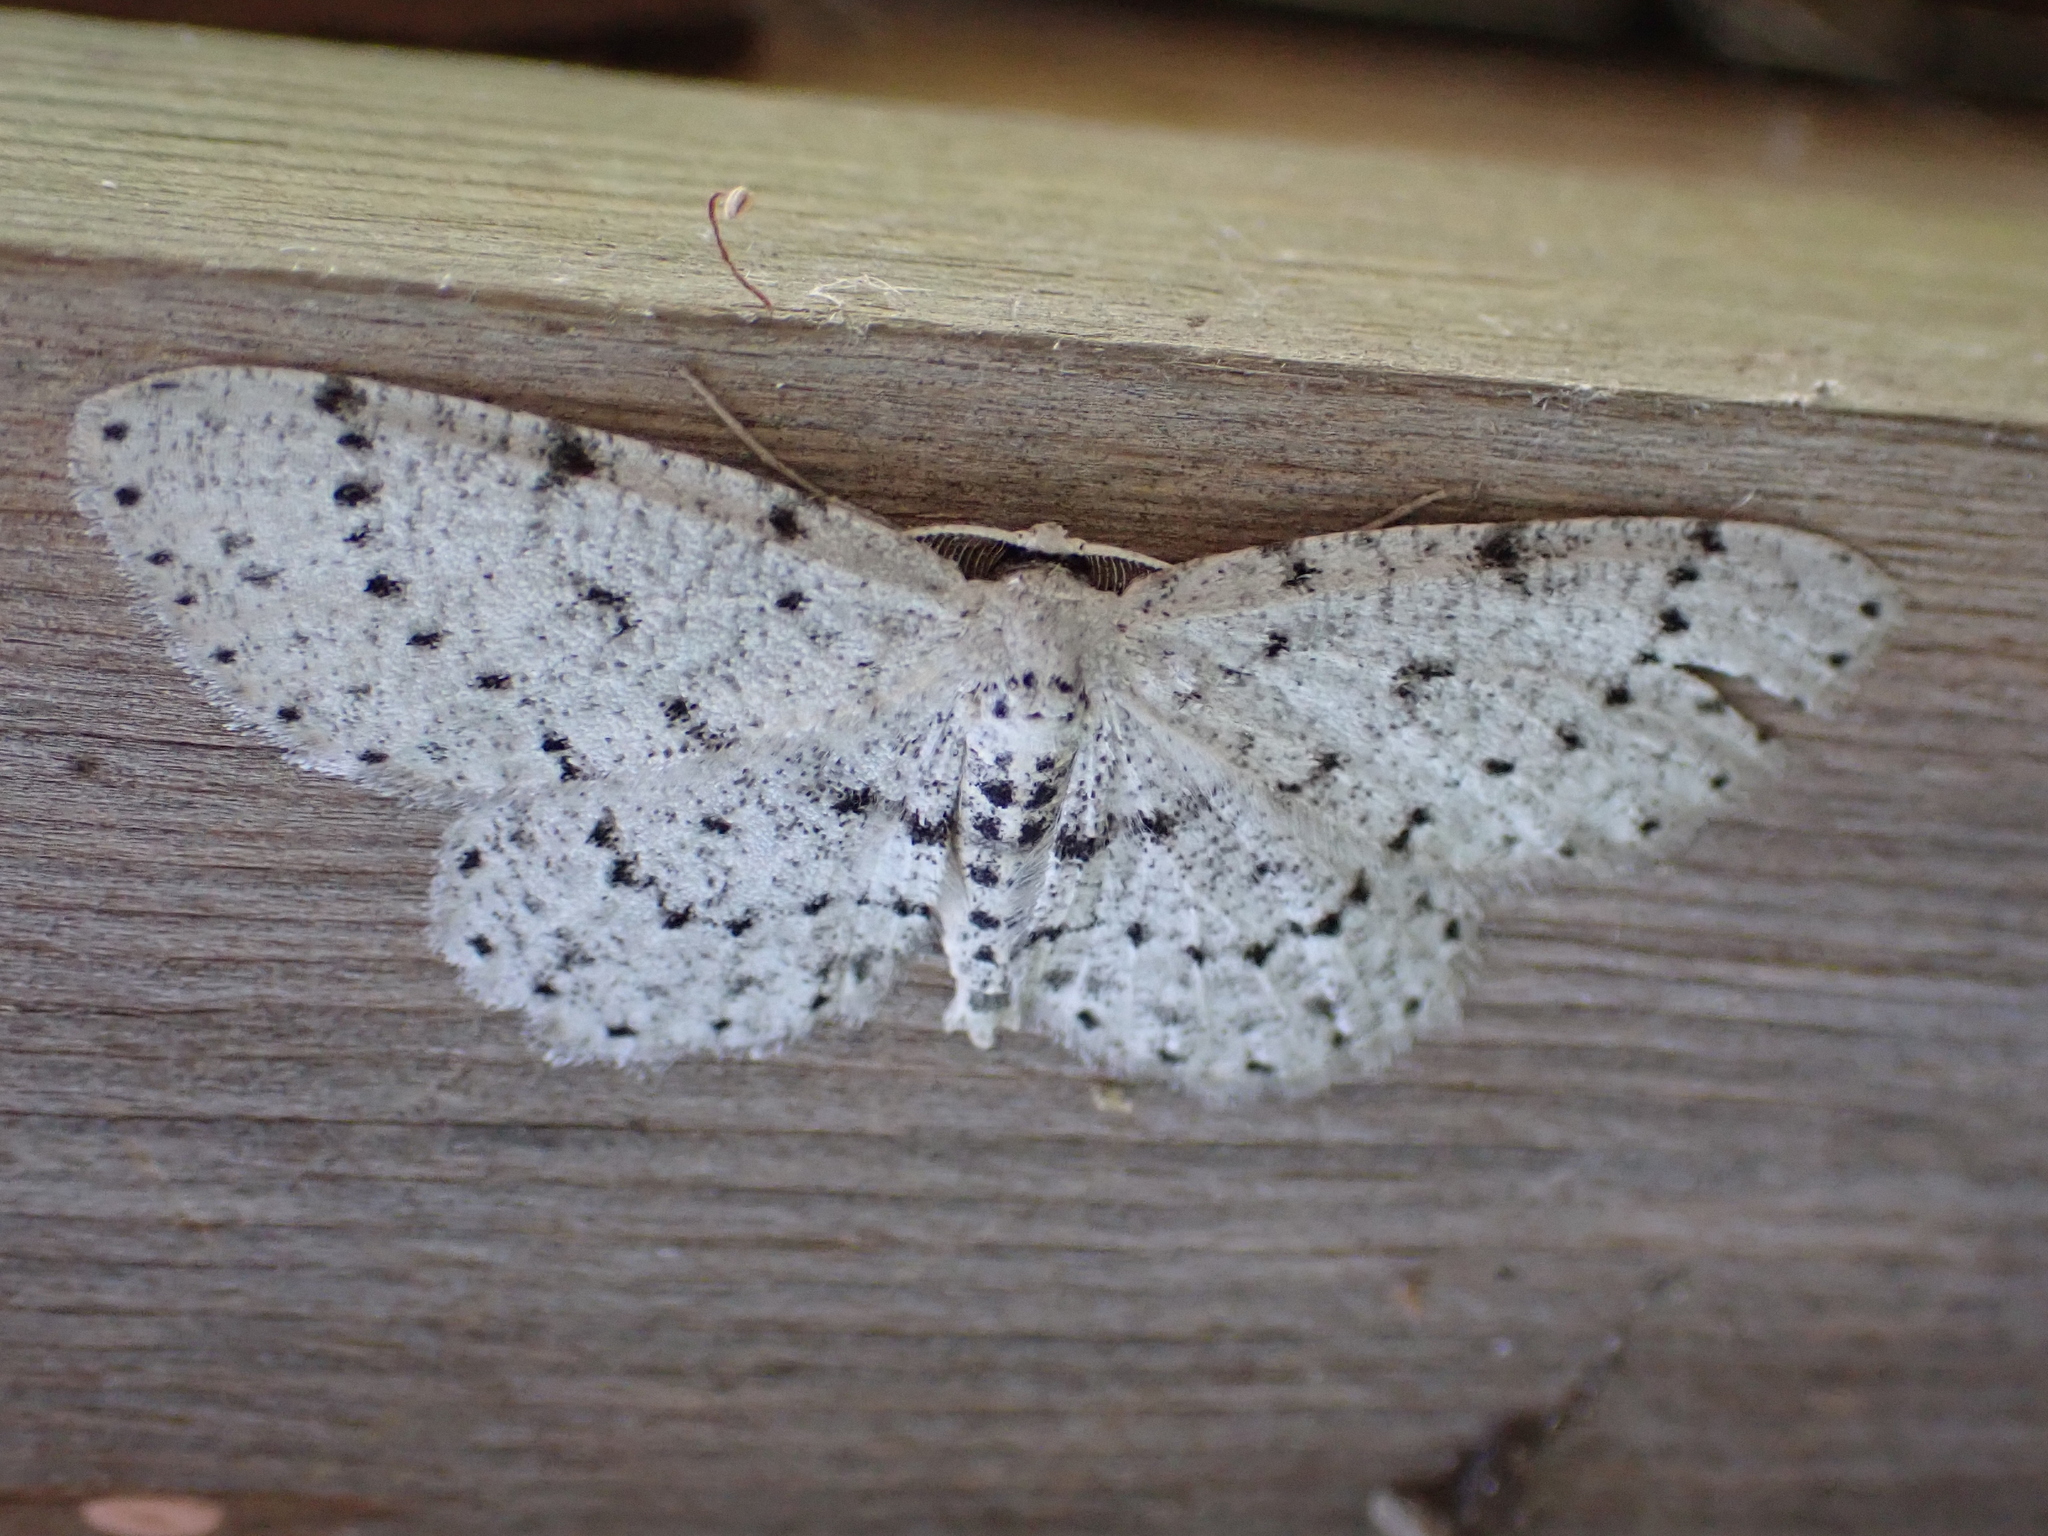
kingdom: Animalia
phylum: Arthropoda
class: Insecta
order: Lepidoptera
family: Geometridae
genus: Glena
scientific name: Glena cribrataria
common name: Dotted gray
